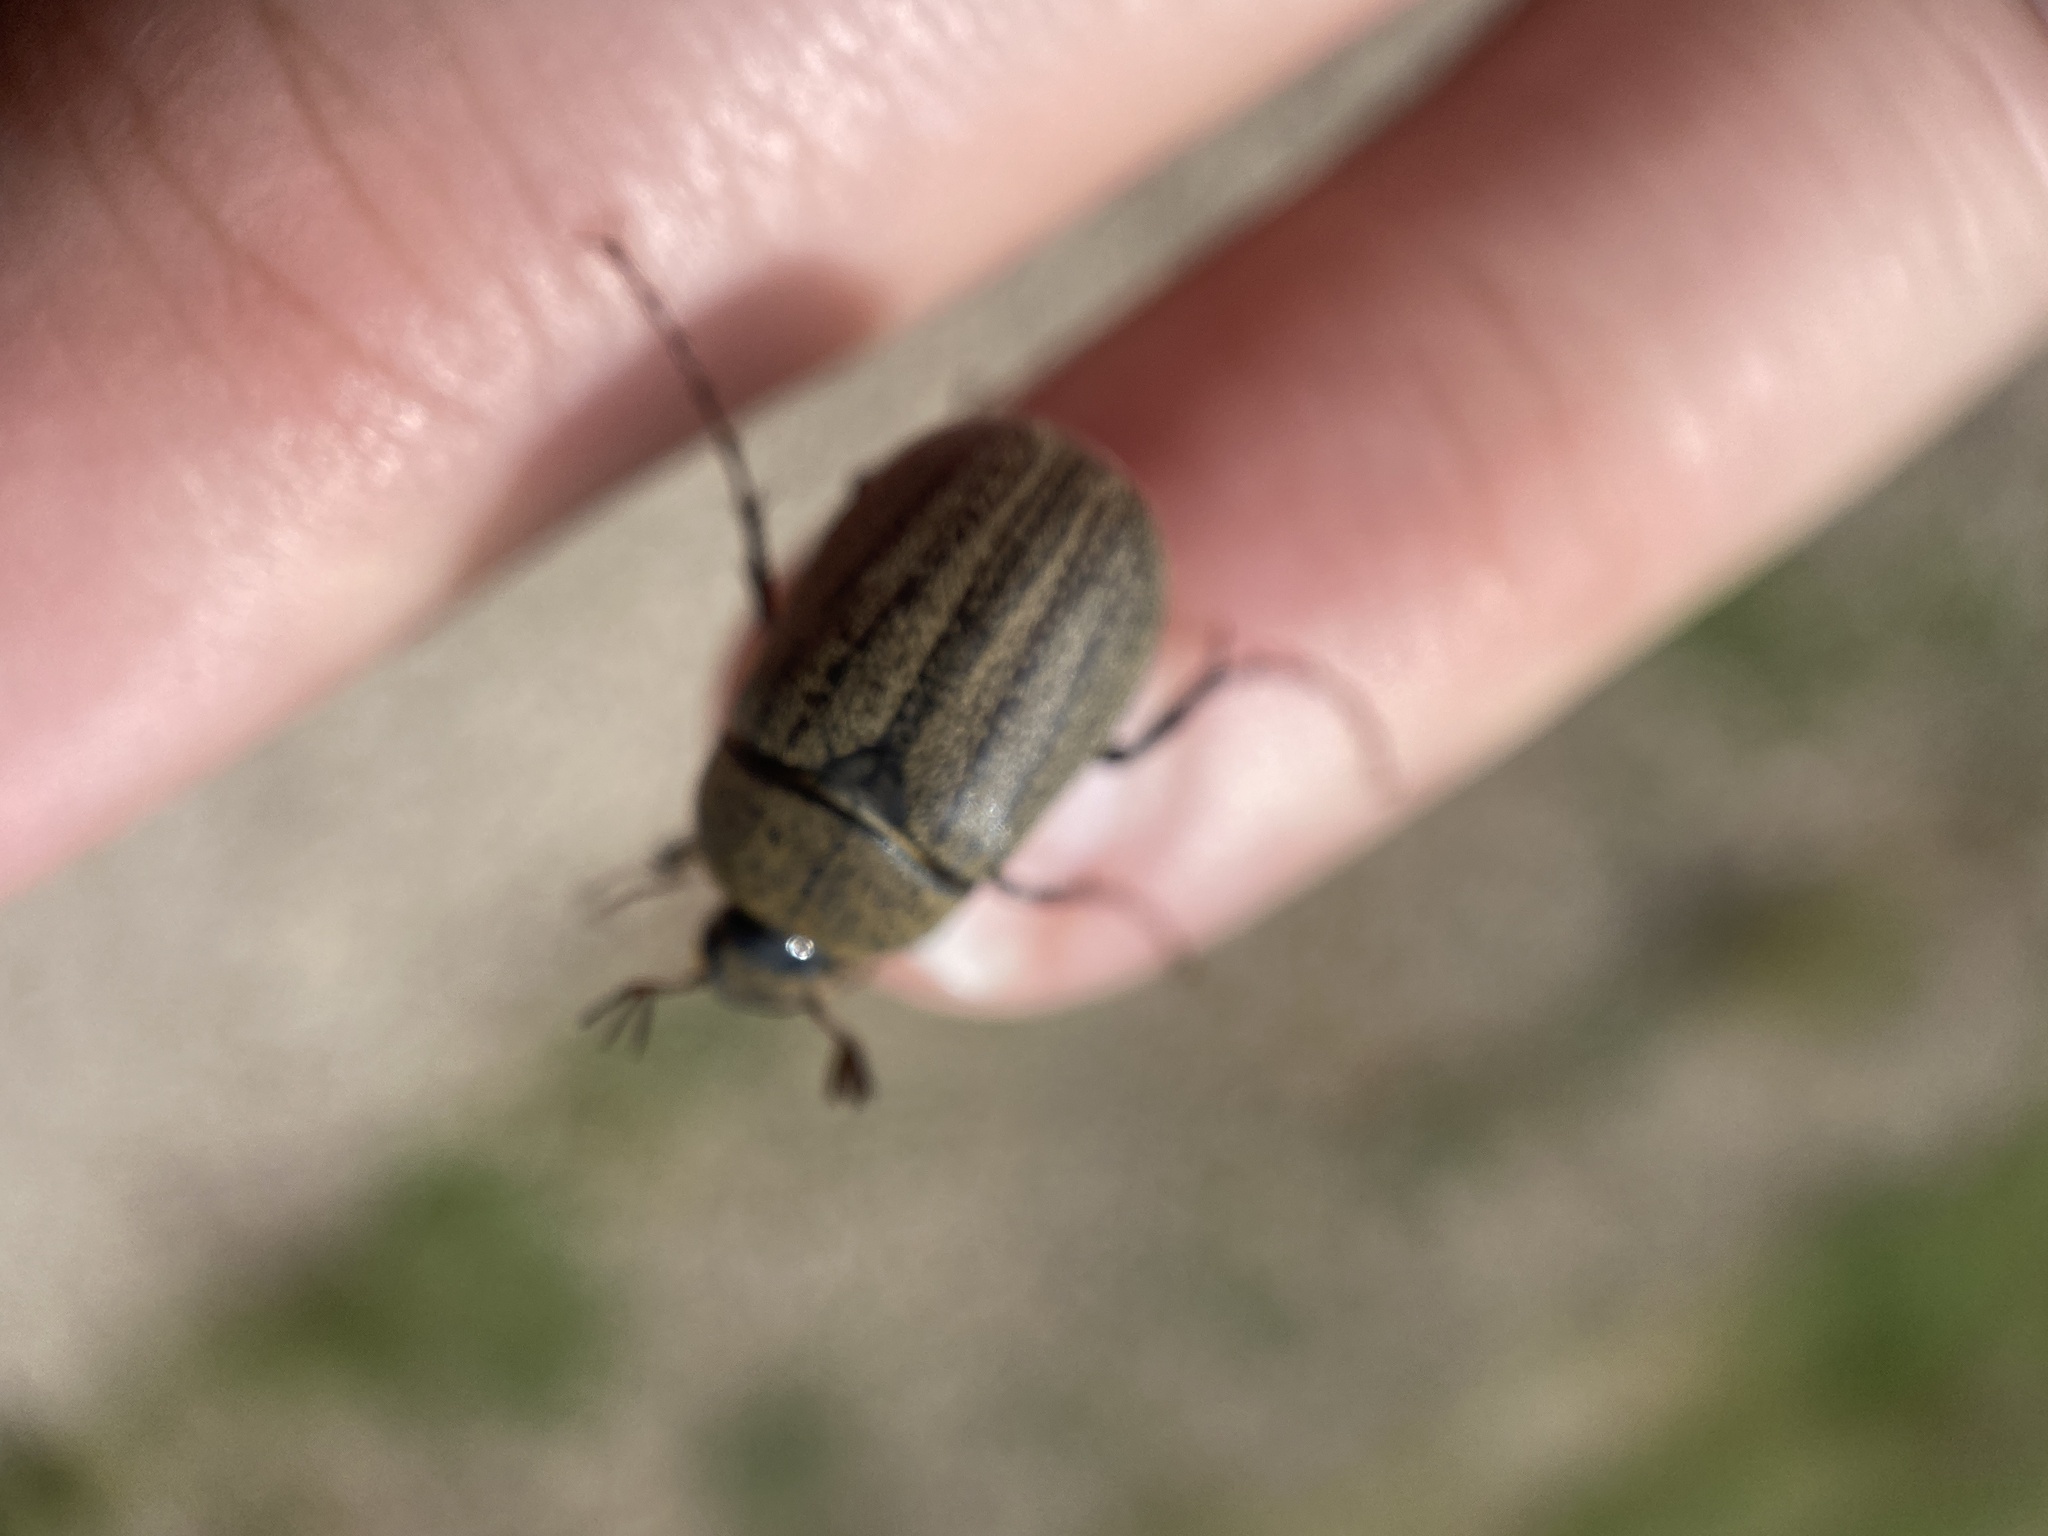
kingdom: Animalia
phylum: Arthropoda
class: Insecta
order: Coleoptera
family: Scarabaeidae
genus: Phyllophaga
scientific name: Phyllophaga lanceolata
